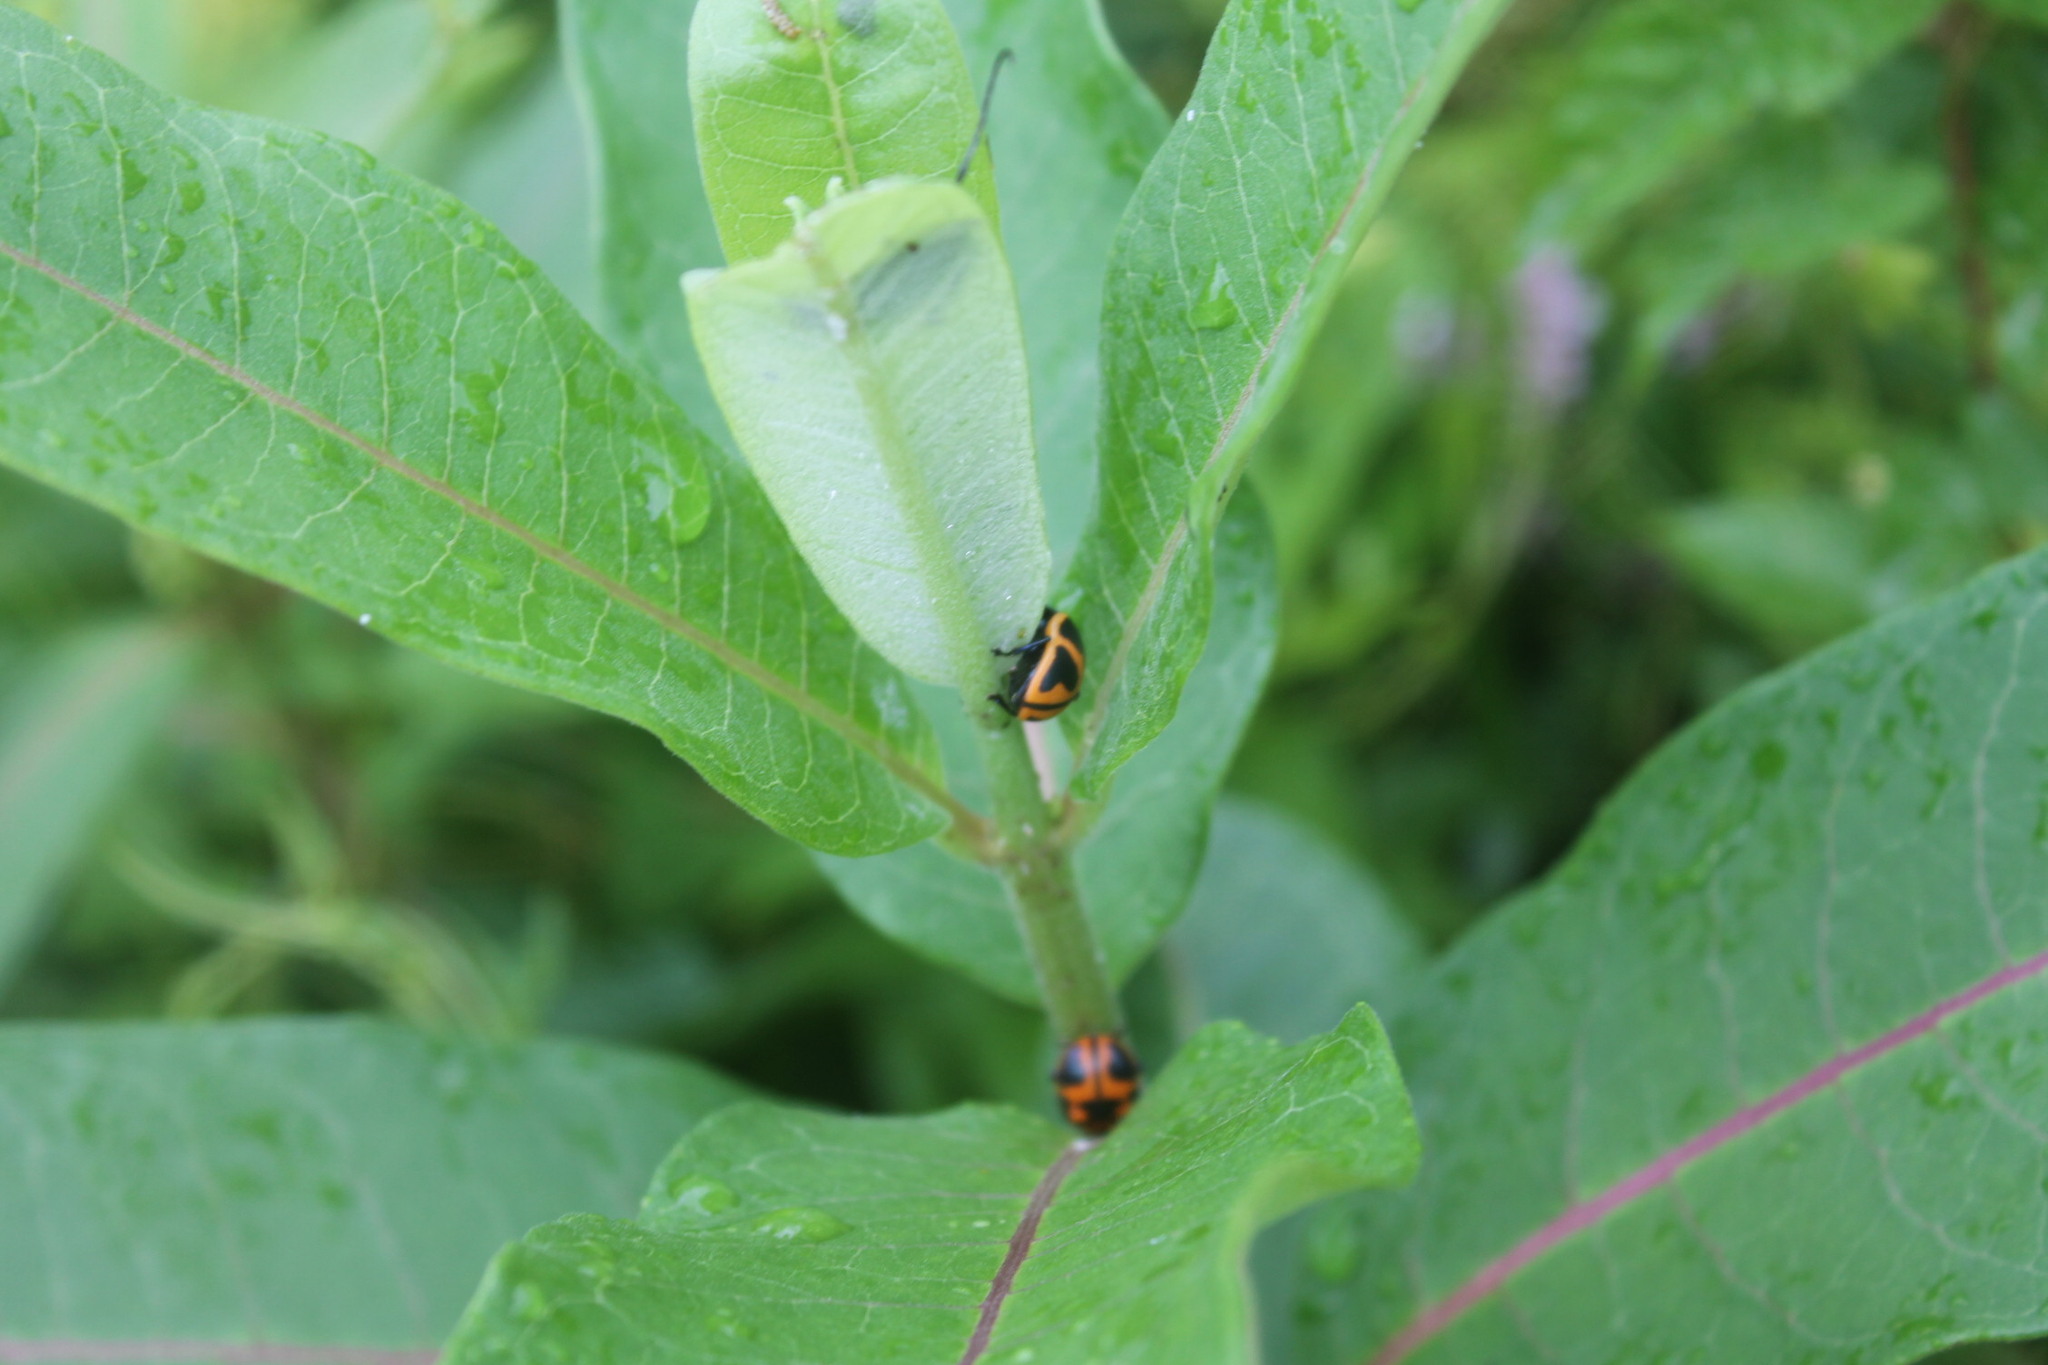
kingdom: Animalia
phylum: Arthropoda
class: Insecta
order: Coleoptera
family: Chrysomelidae
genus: Labidomera
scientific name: Labidomera clivicollis
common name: Swamp milkweed leaf beetle
